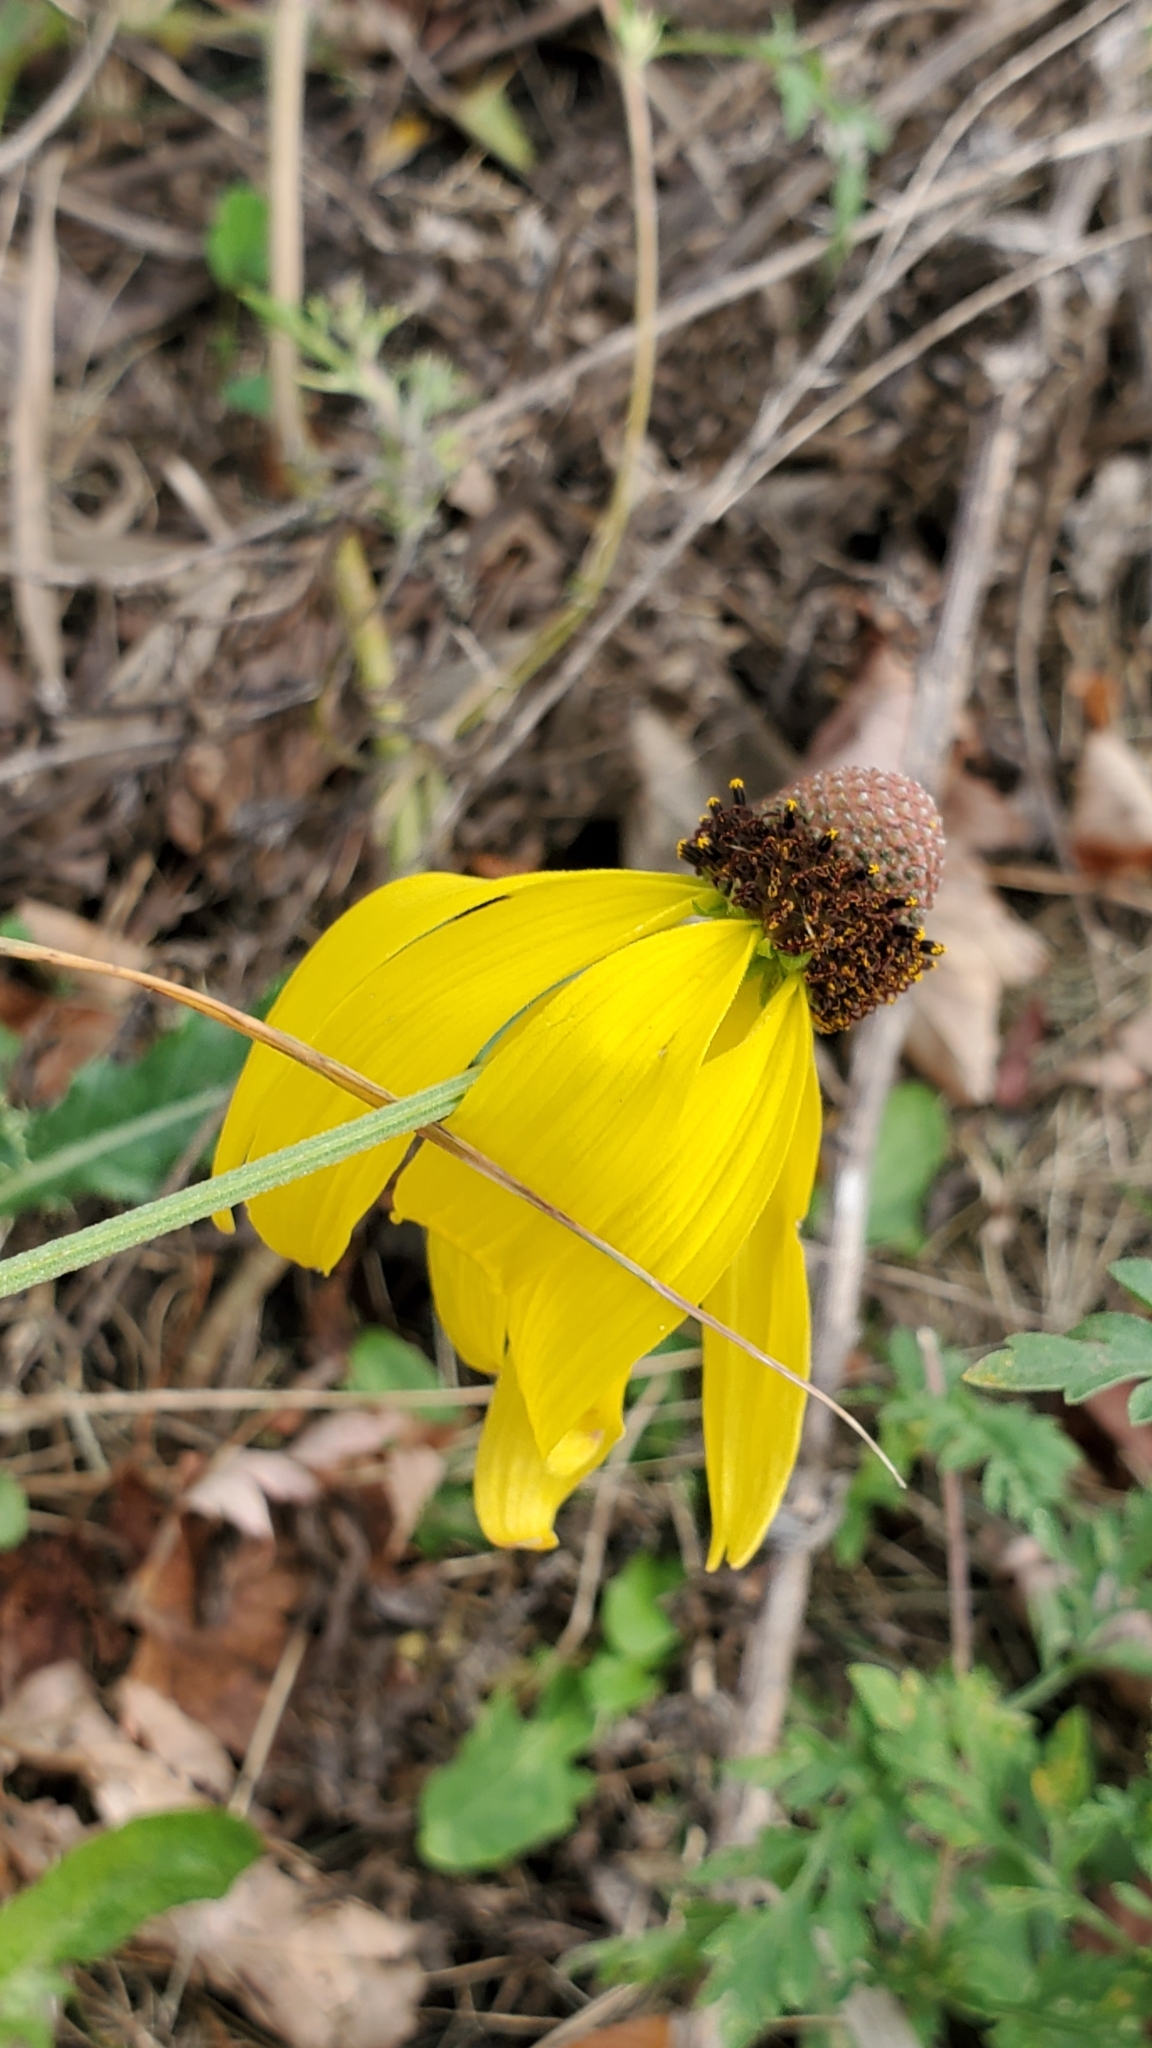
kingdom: Plantae
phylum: Tracheophyta
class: Magnoliopsida
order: Asterales
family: Asteraceae
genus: Ratibida
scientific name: Ratibida pinnata
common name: Drooping prairie-coneflower
